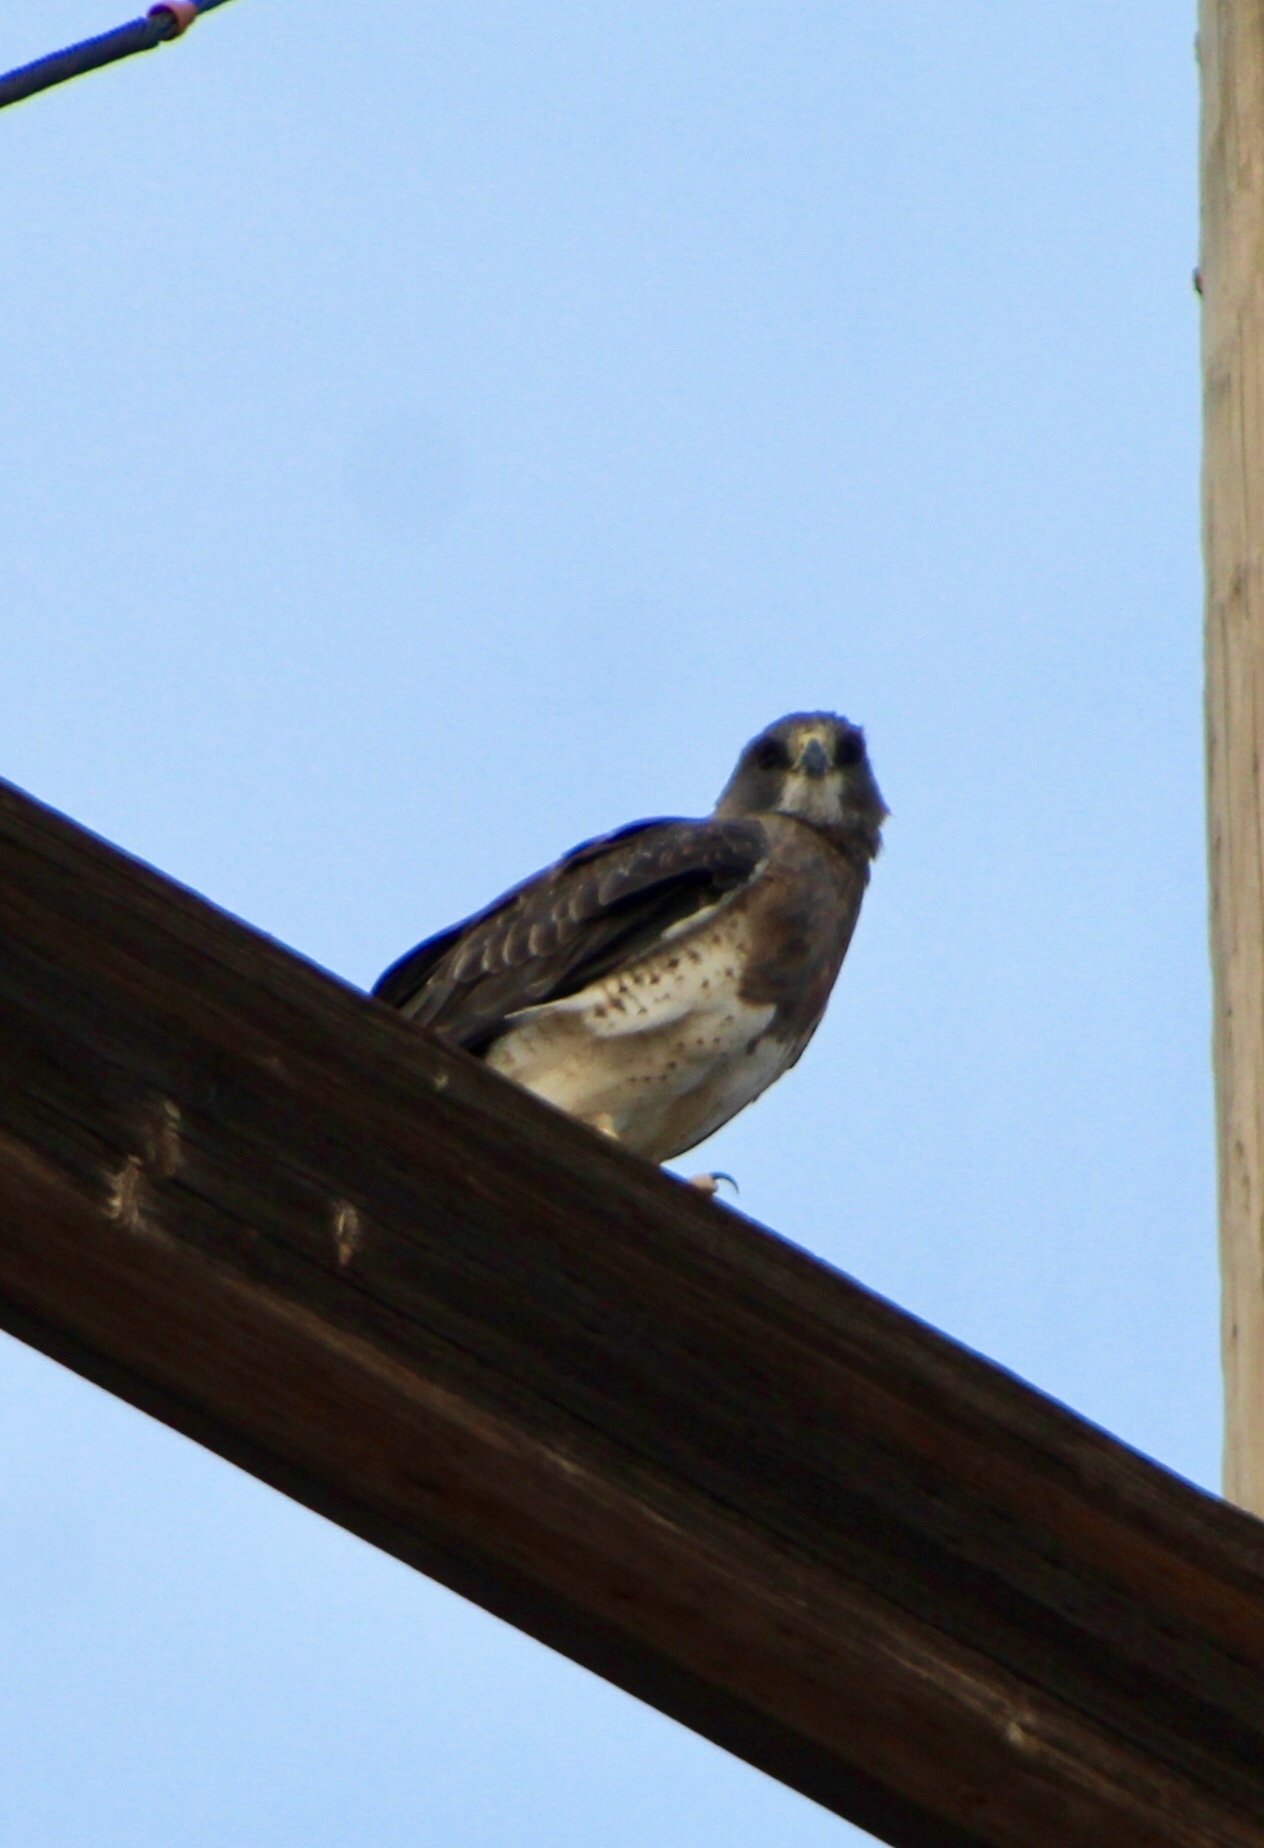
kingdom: Animalia
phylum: Chordata
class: Aves
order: Accipitriformes
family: Accipitridae
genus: Buteo
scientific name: Buteo swainsoni
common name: Swainson's hawk
